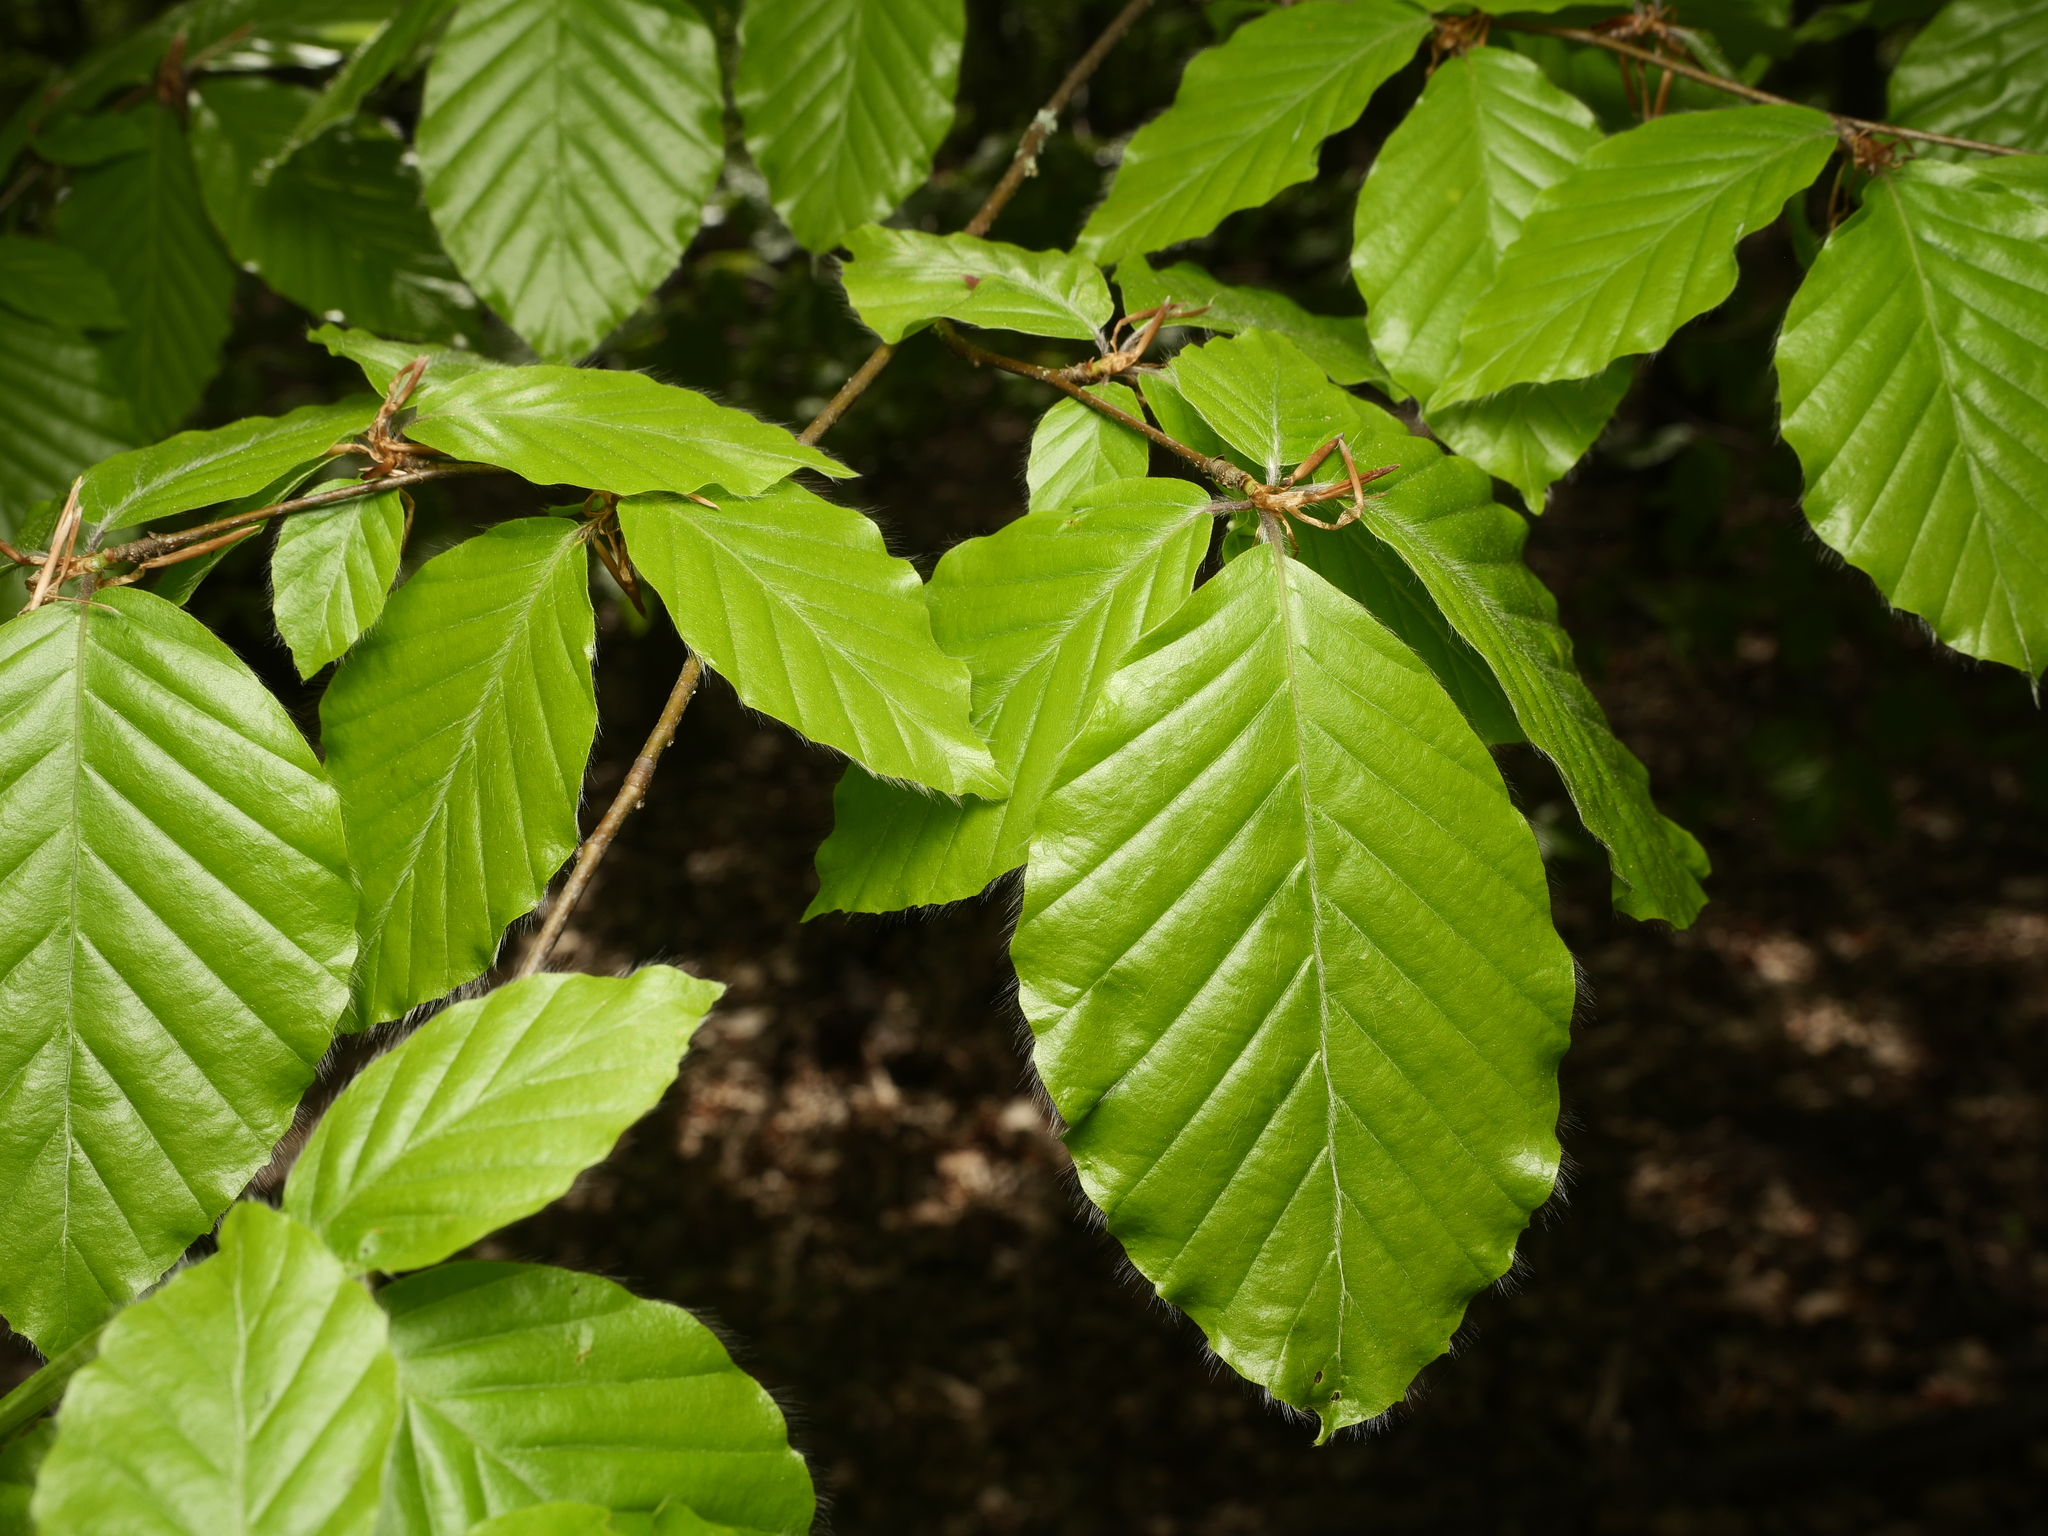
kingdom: Plantae
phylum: Tracheophyta
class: Magnoliopsida
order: Fagales
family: Fagaceae
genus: Fagus
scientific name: Fagus sylvatica
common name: Beech
